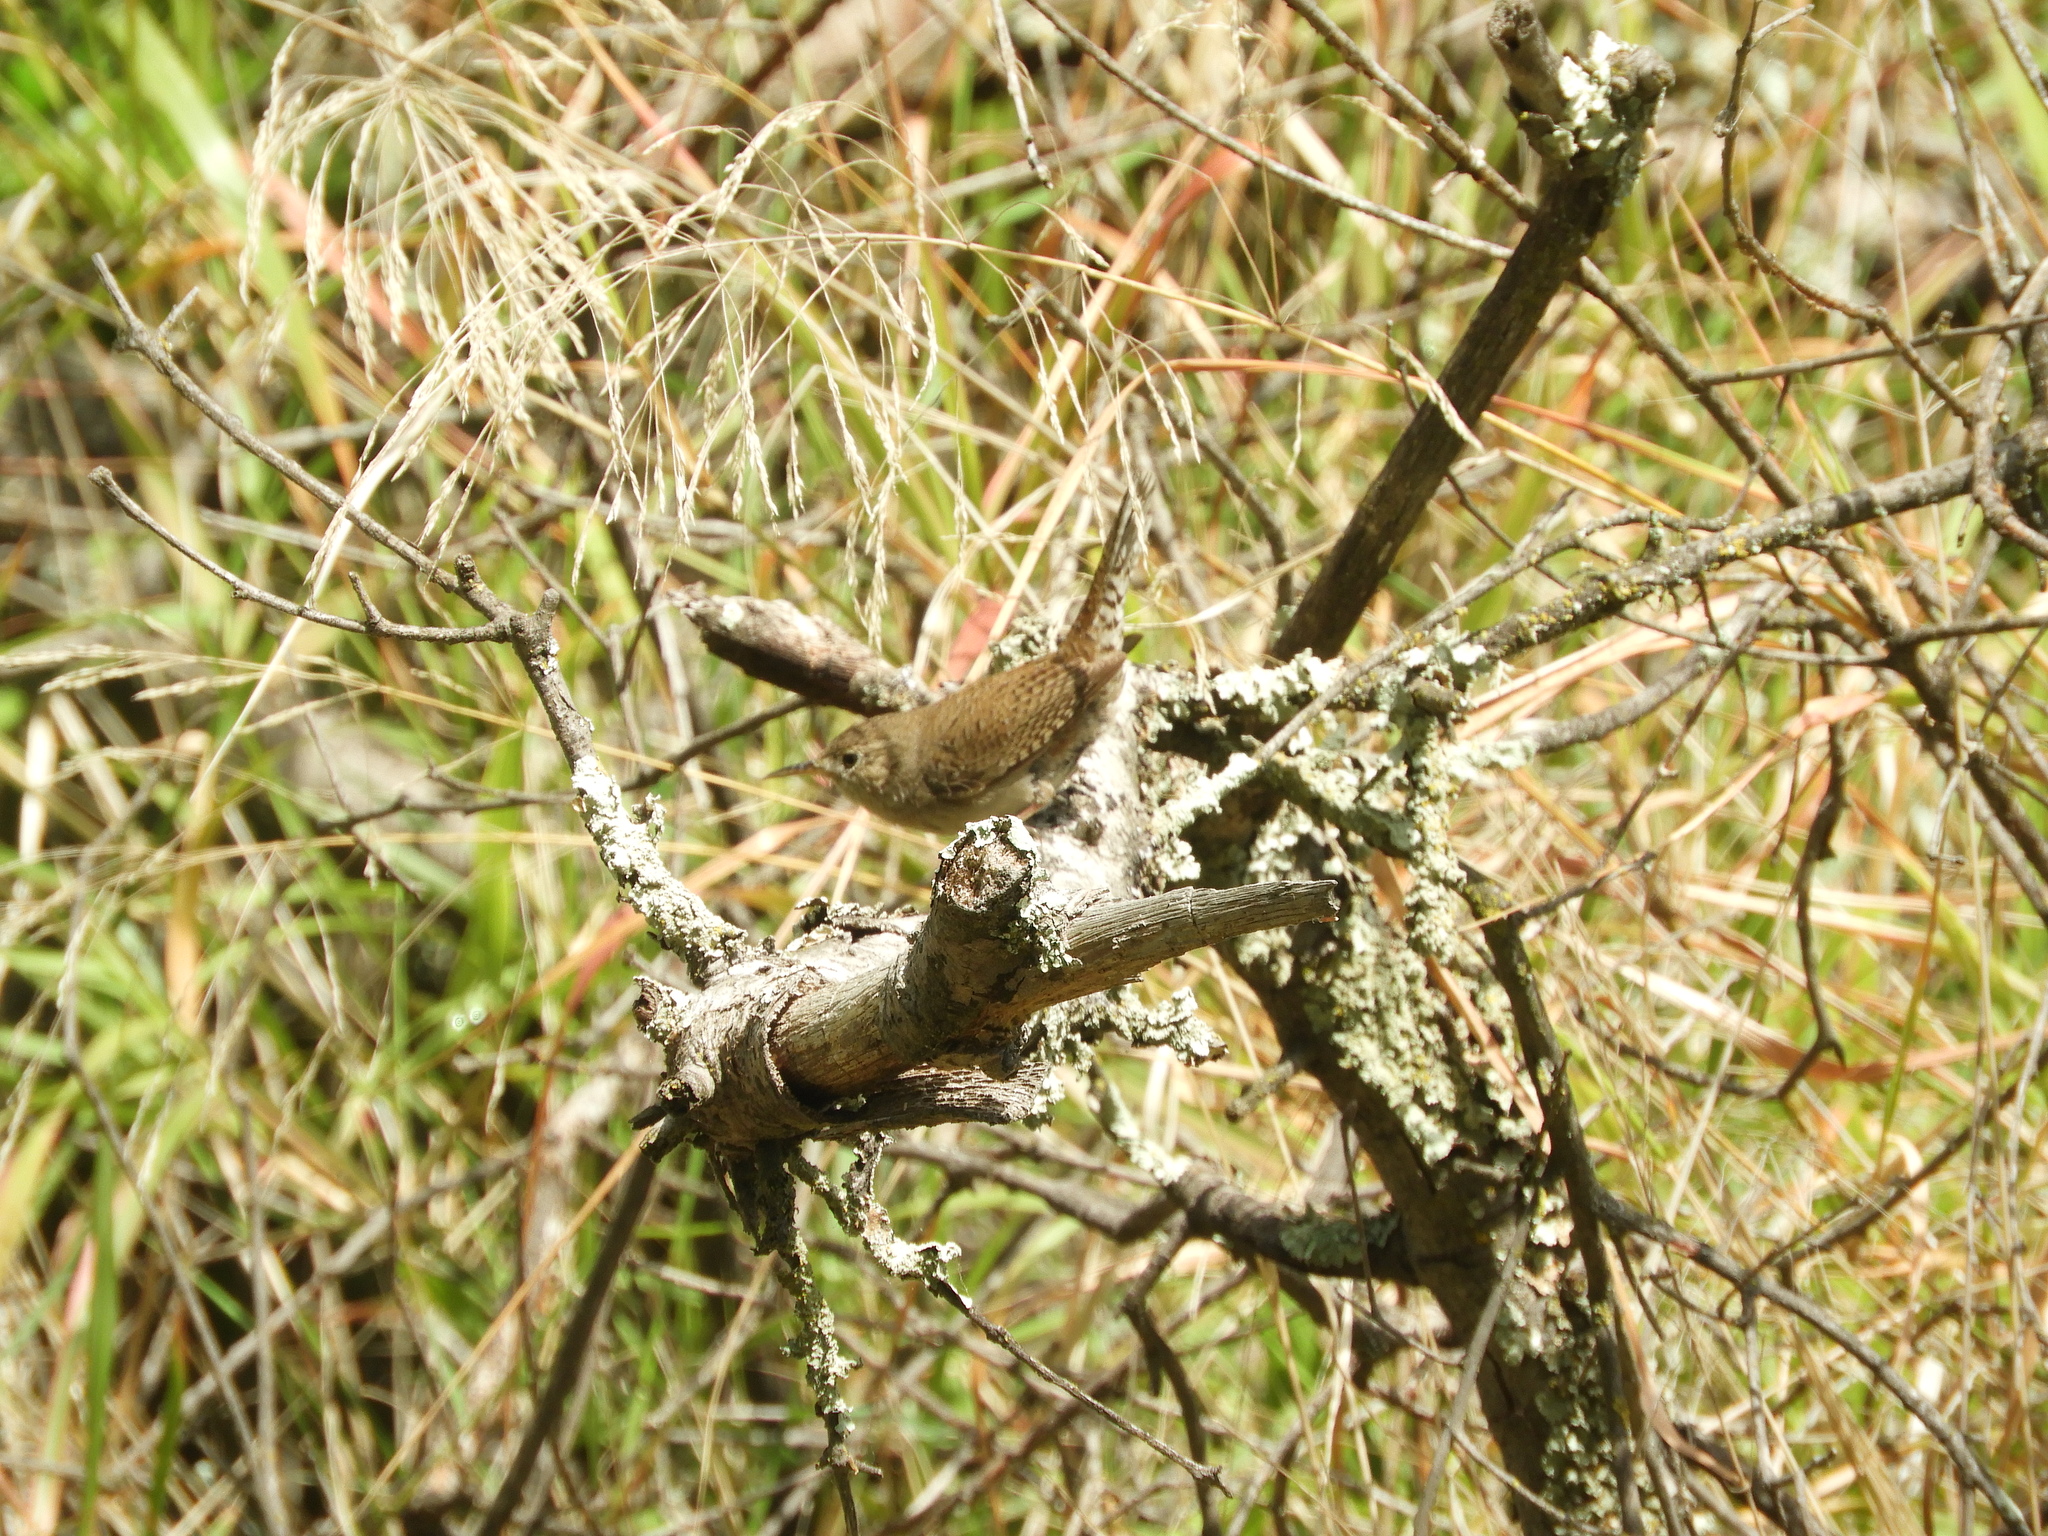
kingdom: Animalia
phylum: Chordata
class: Aves
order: Passeriformes
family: Troglodytidae
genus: Troglodytes
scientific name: Troglodytes aedon
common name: House wren
